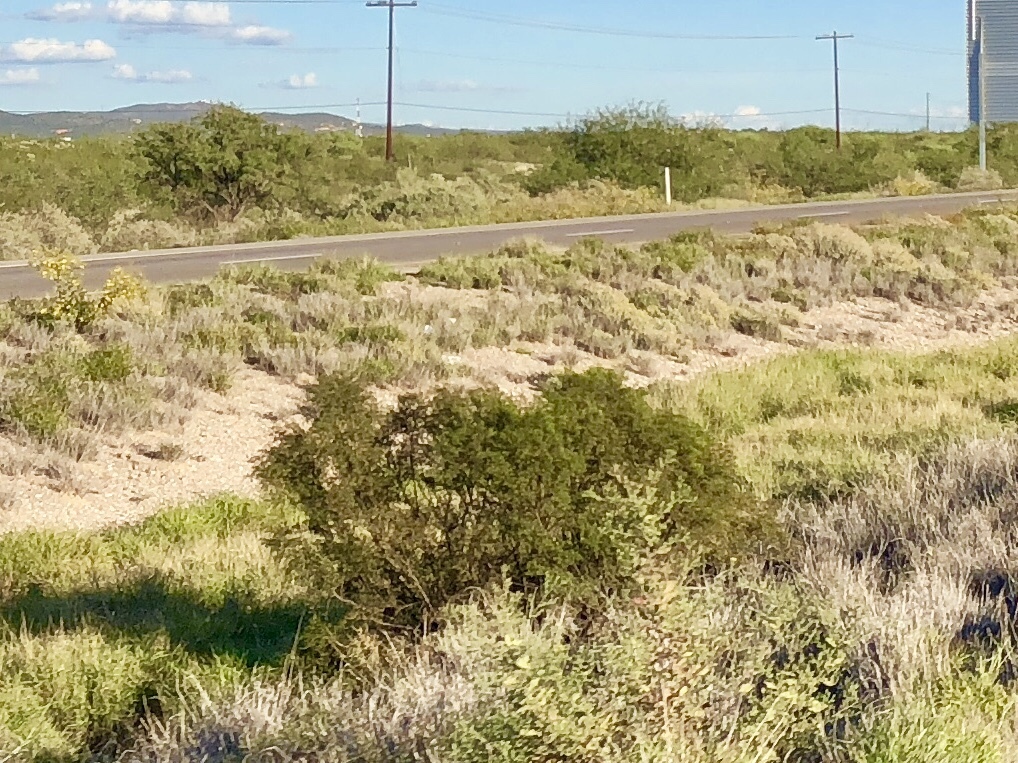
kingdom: Plantae
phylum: Tracheophyta
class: Magnoliopsida
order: Zygophyllales
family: Zygophyllaceae
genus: Larrea
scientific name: Larrea tridentata
